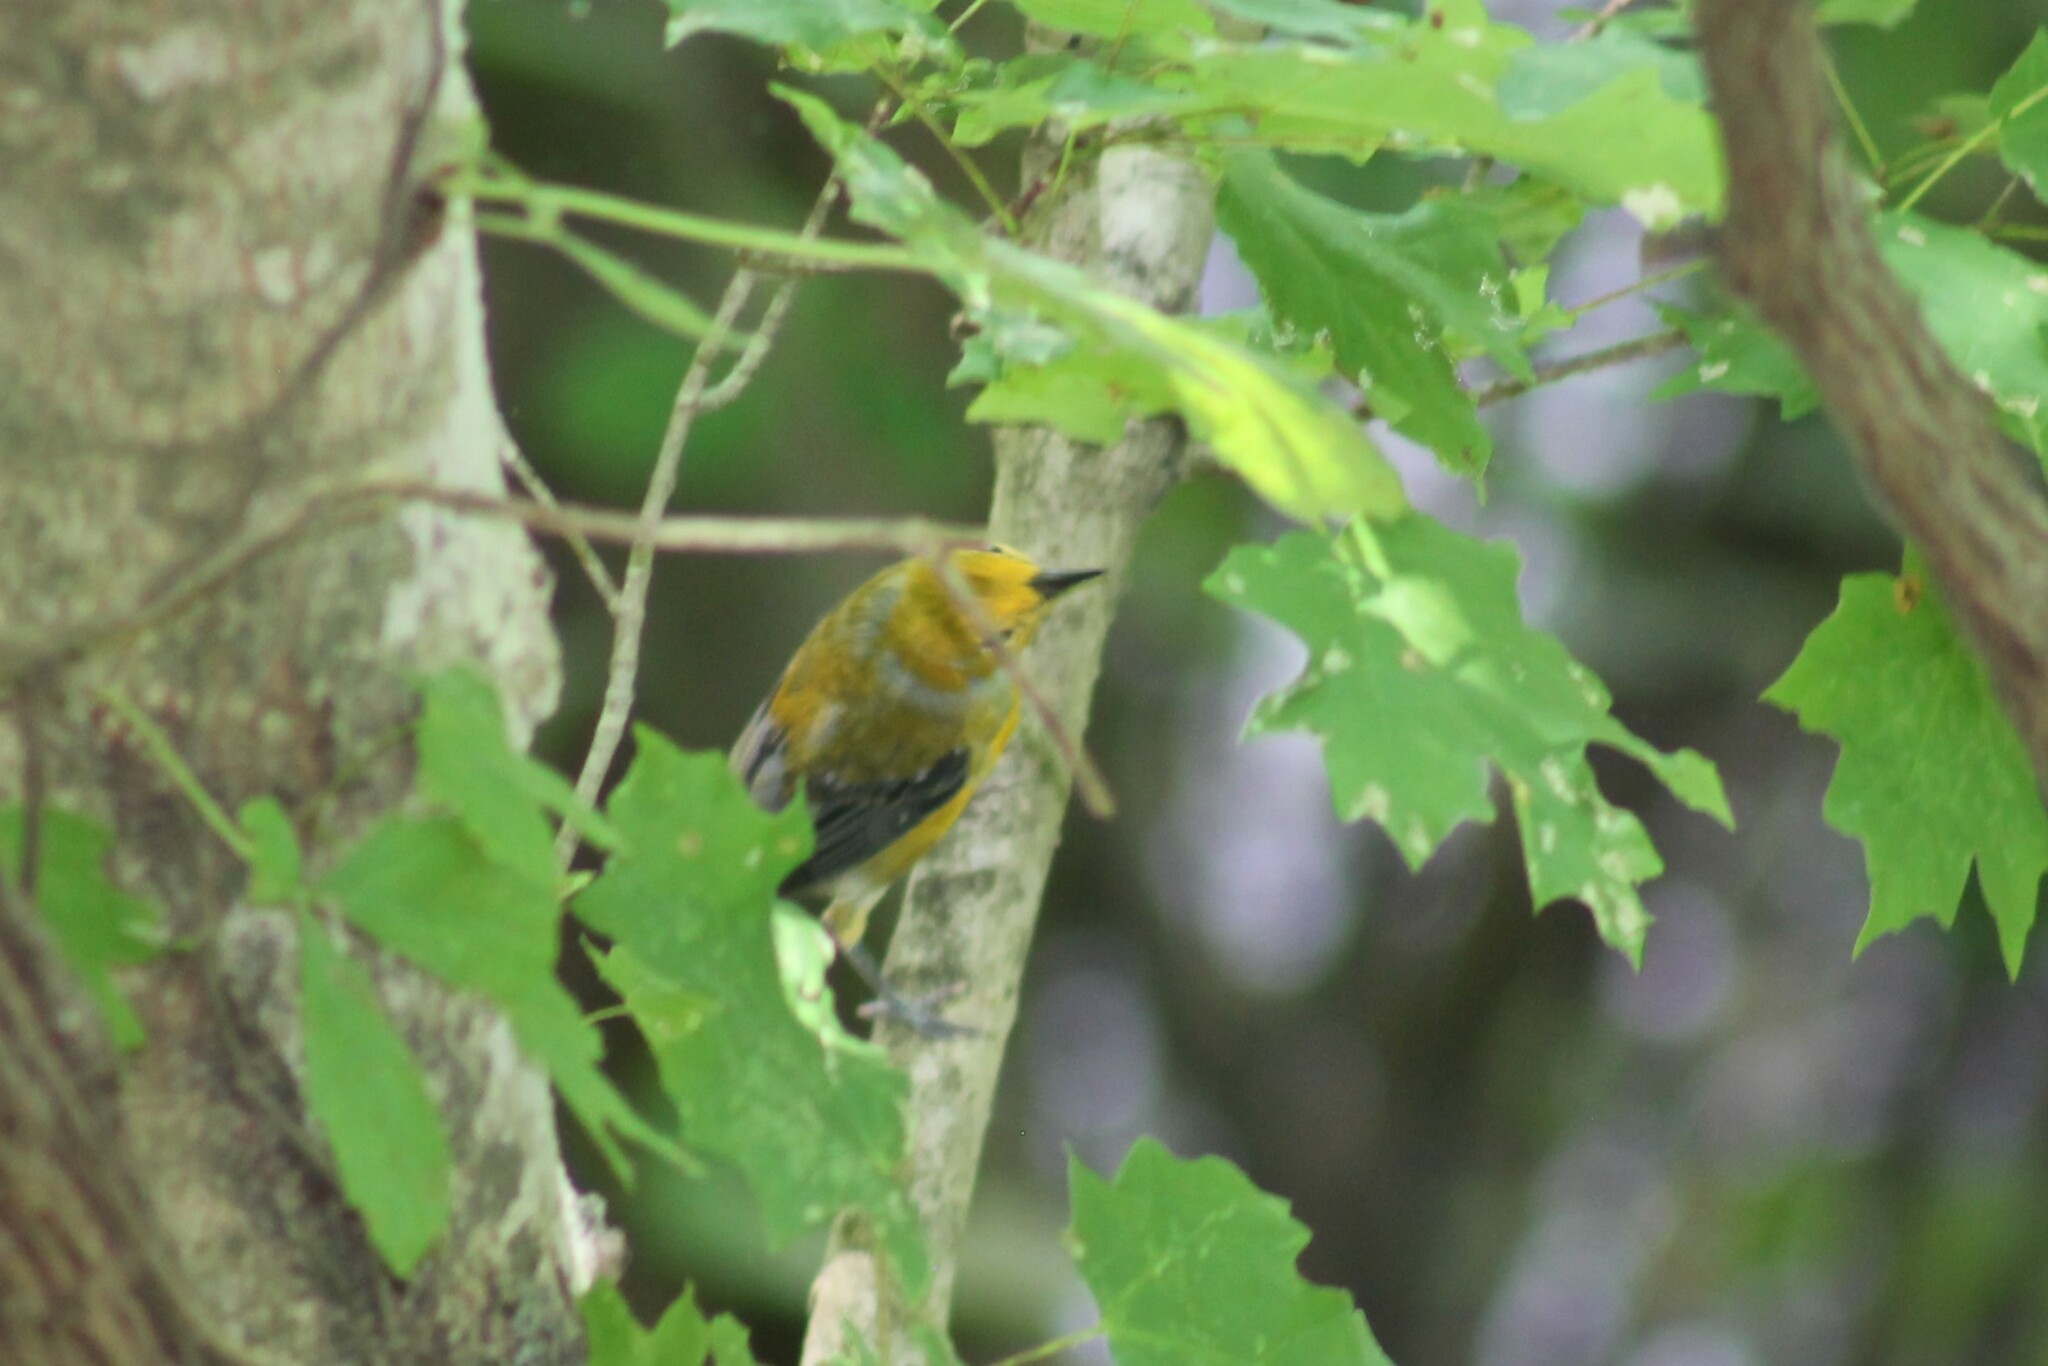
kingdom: Animalia
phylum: Chordata
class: Aves
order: Passeriformes
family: Parulidae
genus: Protonotaria
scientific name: Protonotaria citrea
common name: Prothonotary warbler
